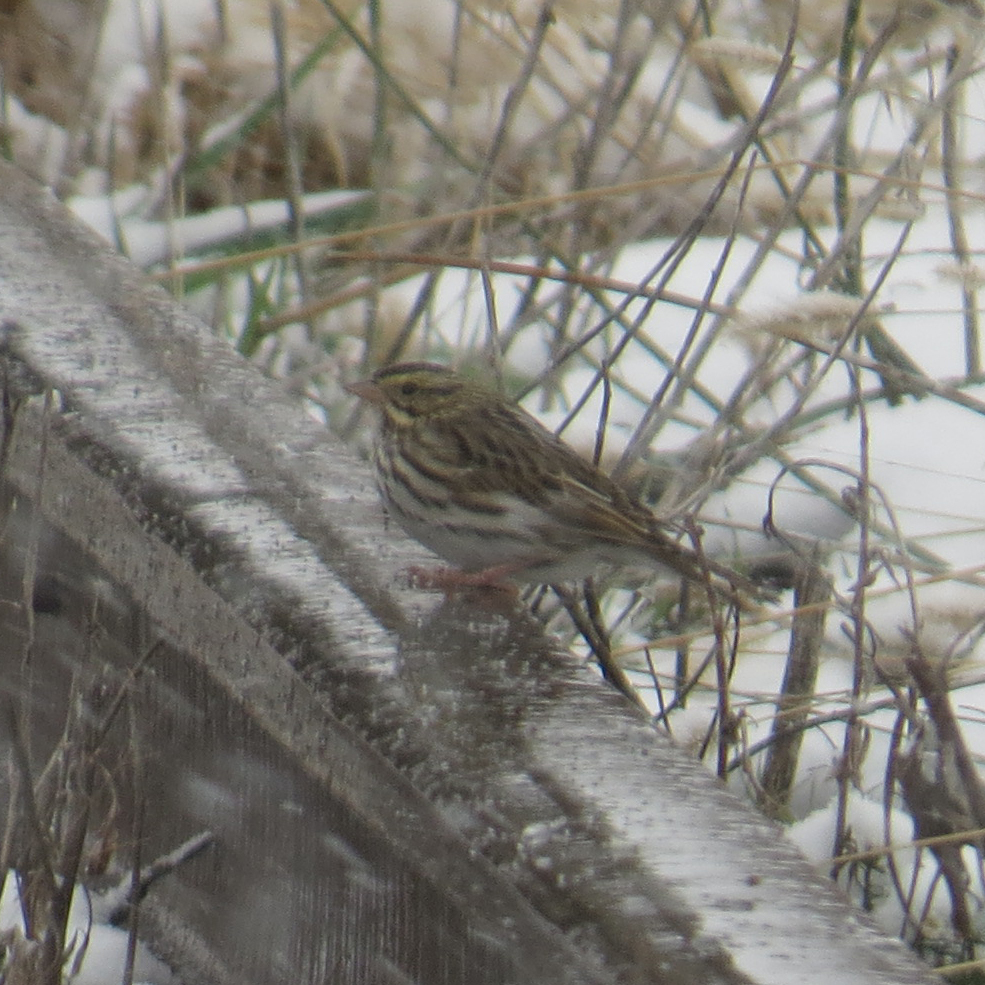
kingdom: Animalia
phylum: Chordata
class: Aves
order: Passeriformes
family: Passerellidae
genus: Passerculus
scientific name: Passerculus sandwichensis
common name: Savannah sparrow
